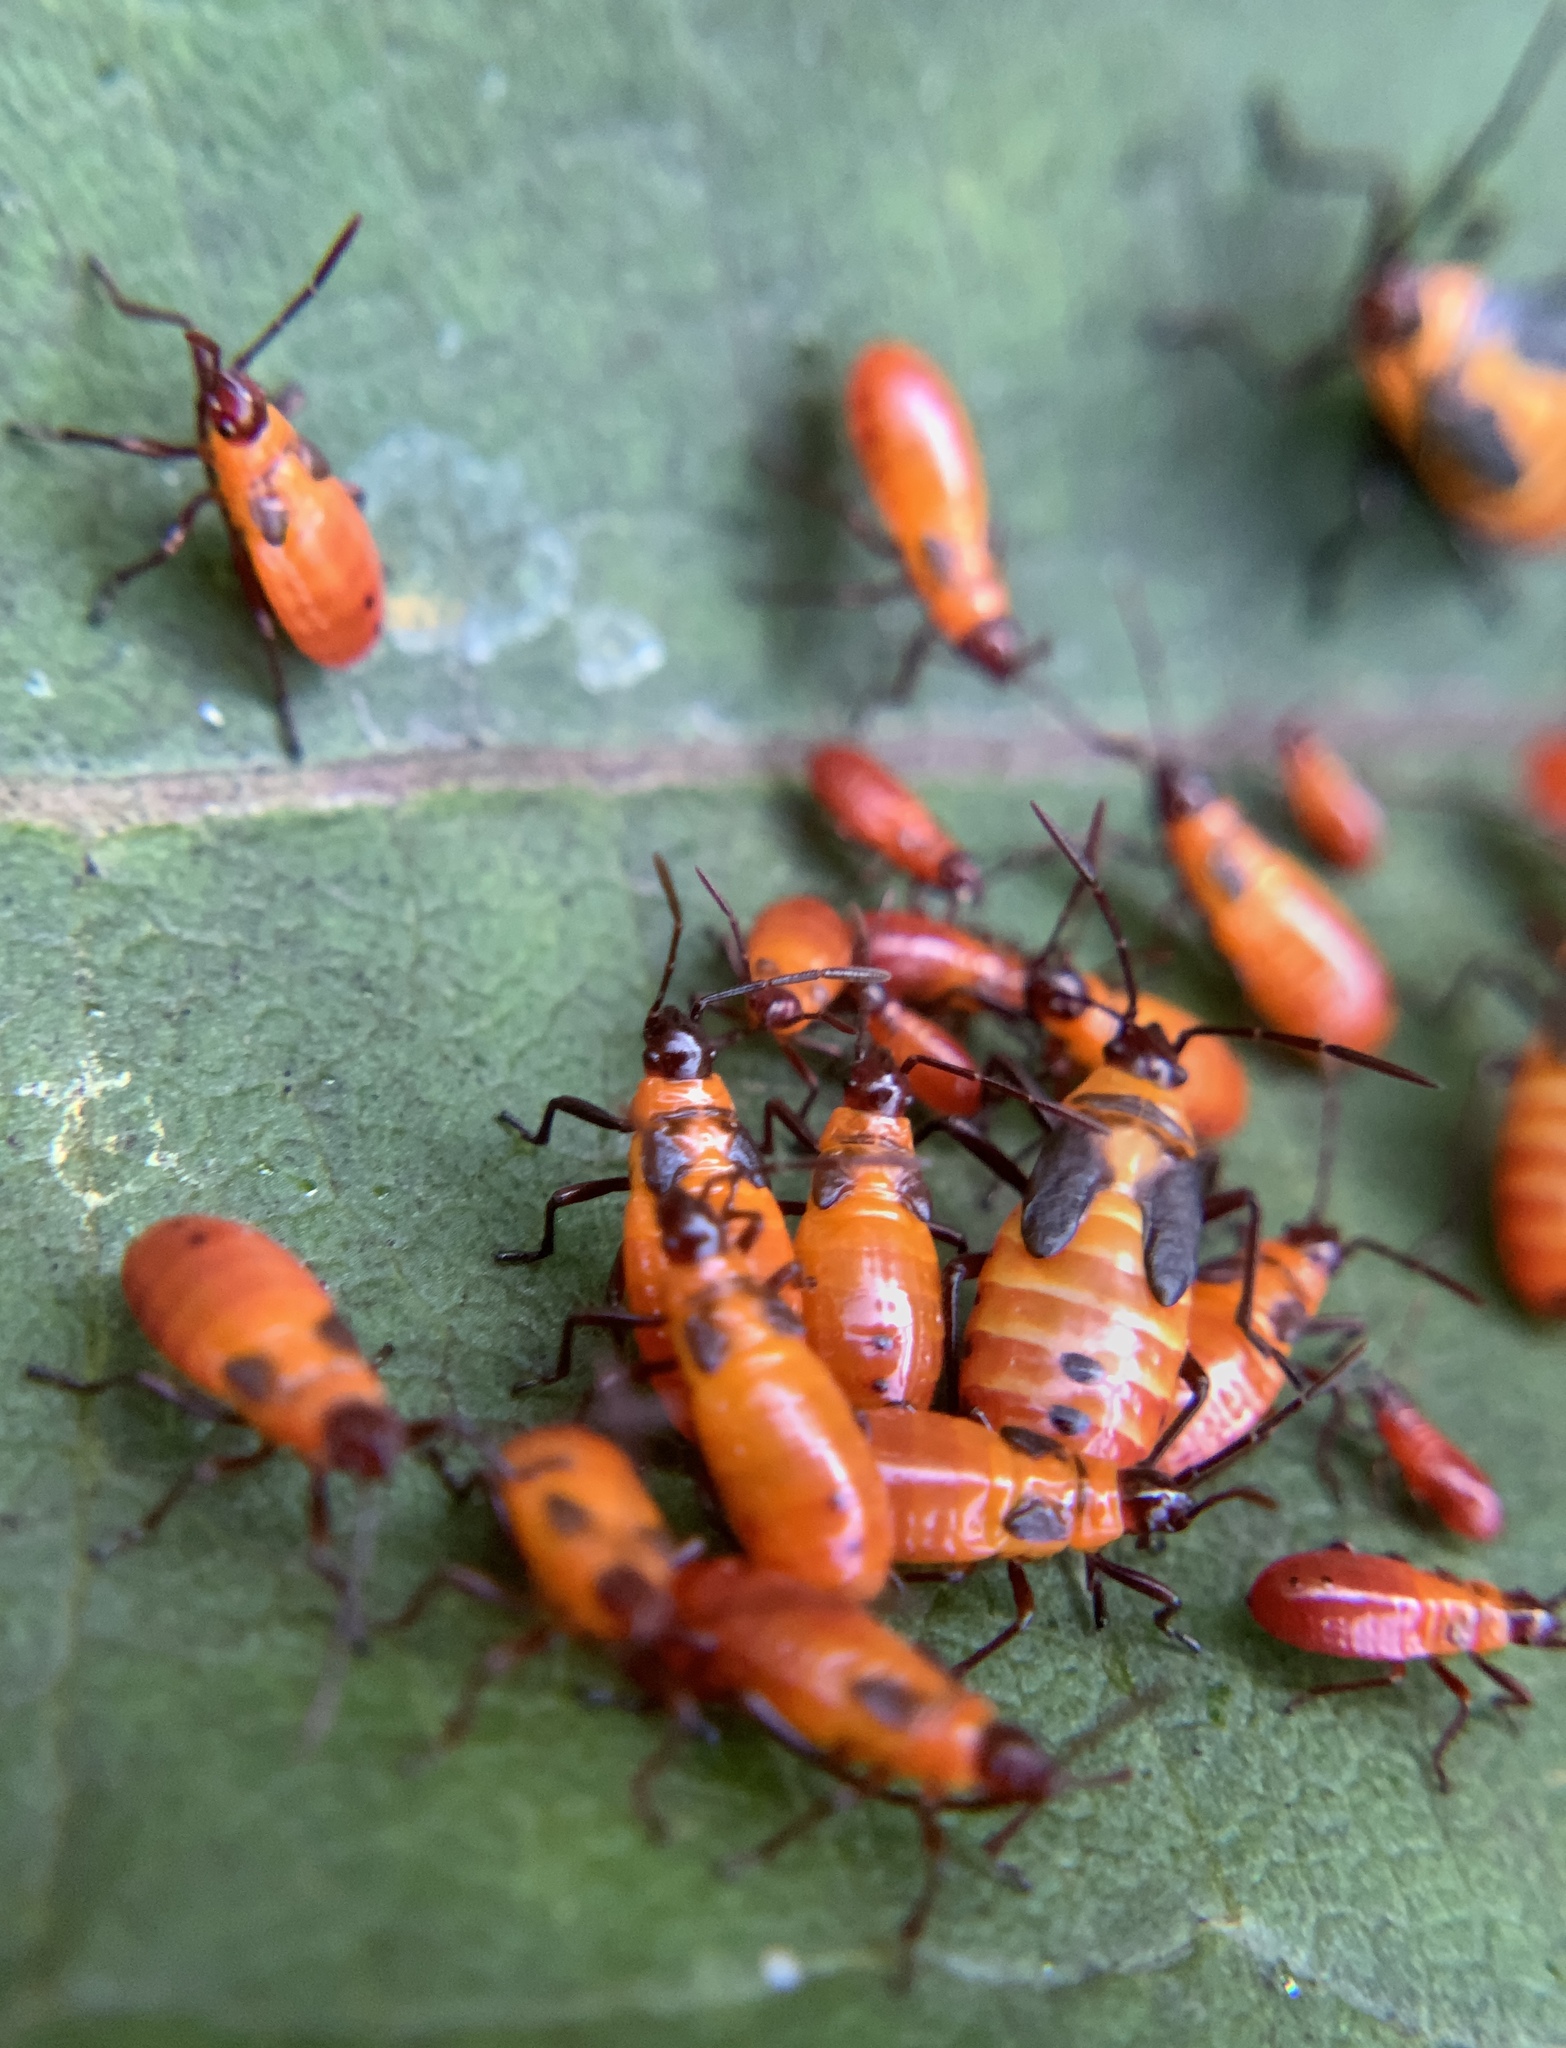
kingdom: Animalia
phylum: Arthropoda
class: Insecta
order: Hemiptera
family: Lygaeidae
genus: Oncopeltus
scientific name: Oncopeltus fasciatus
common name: Large milkweed bug
